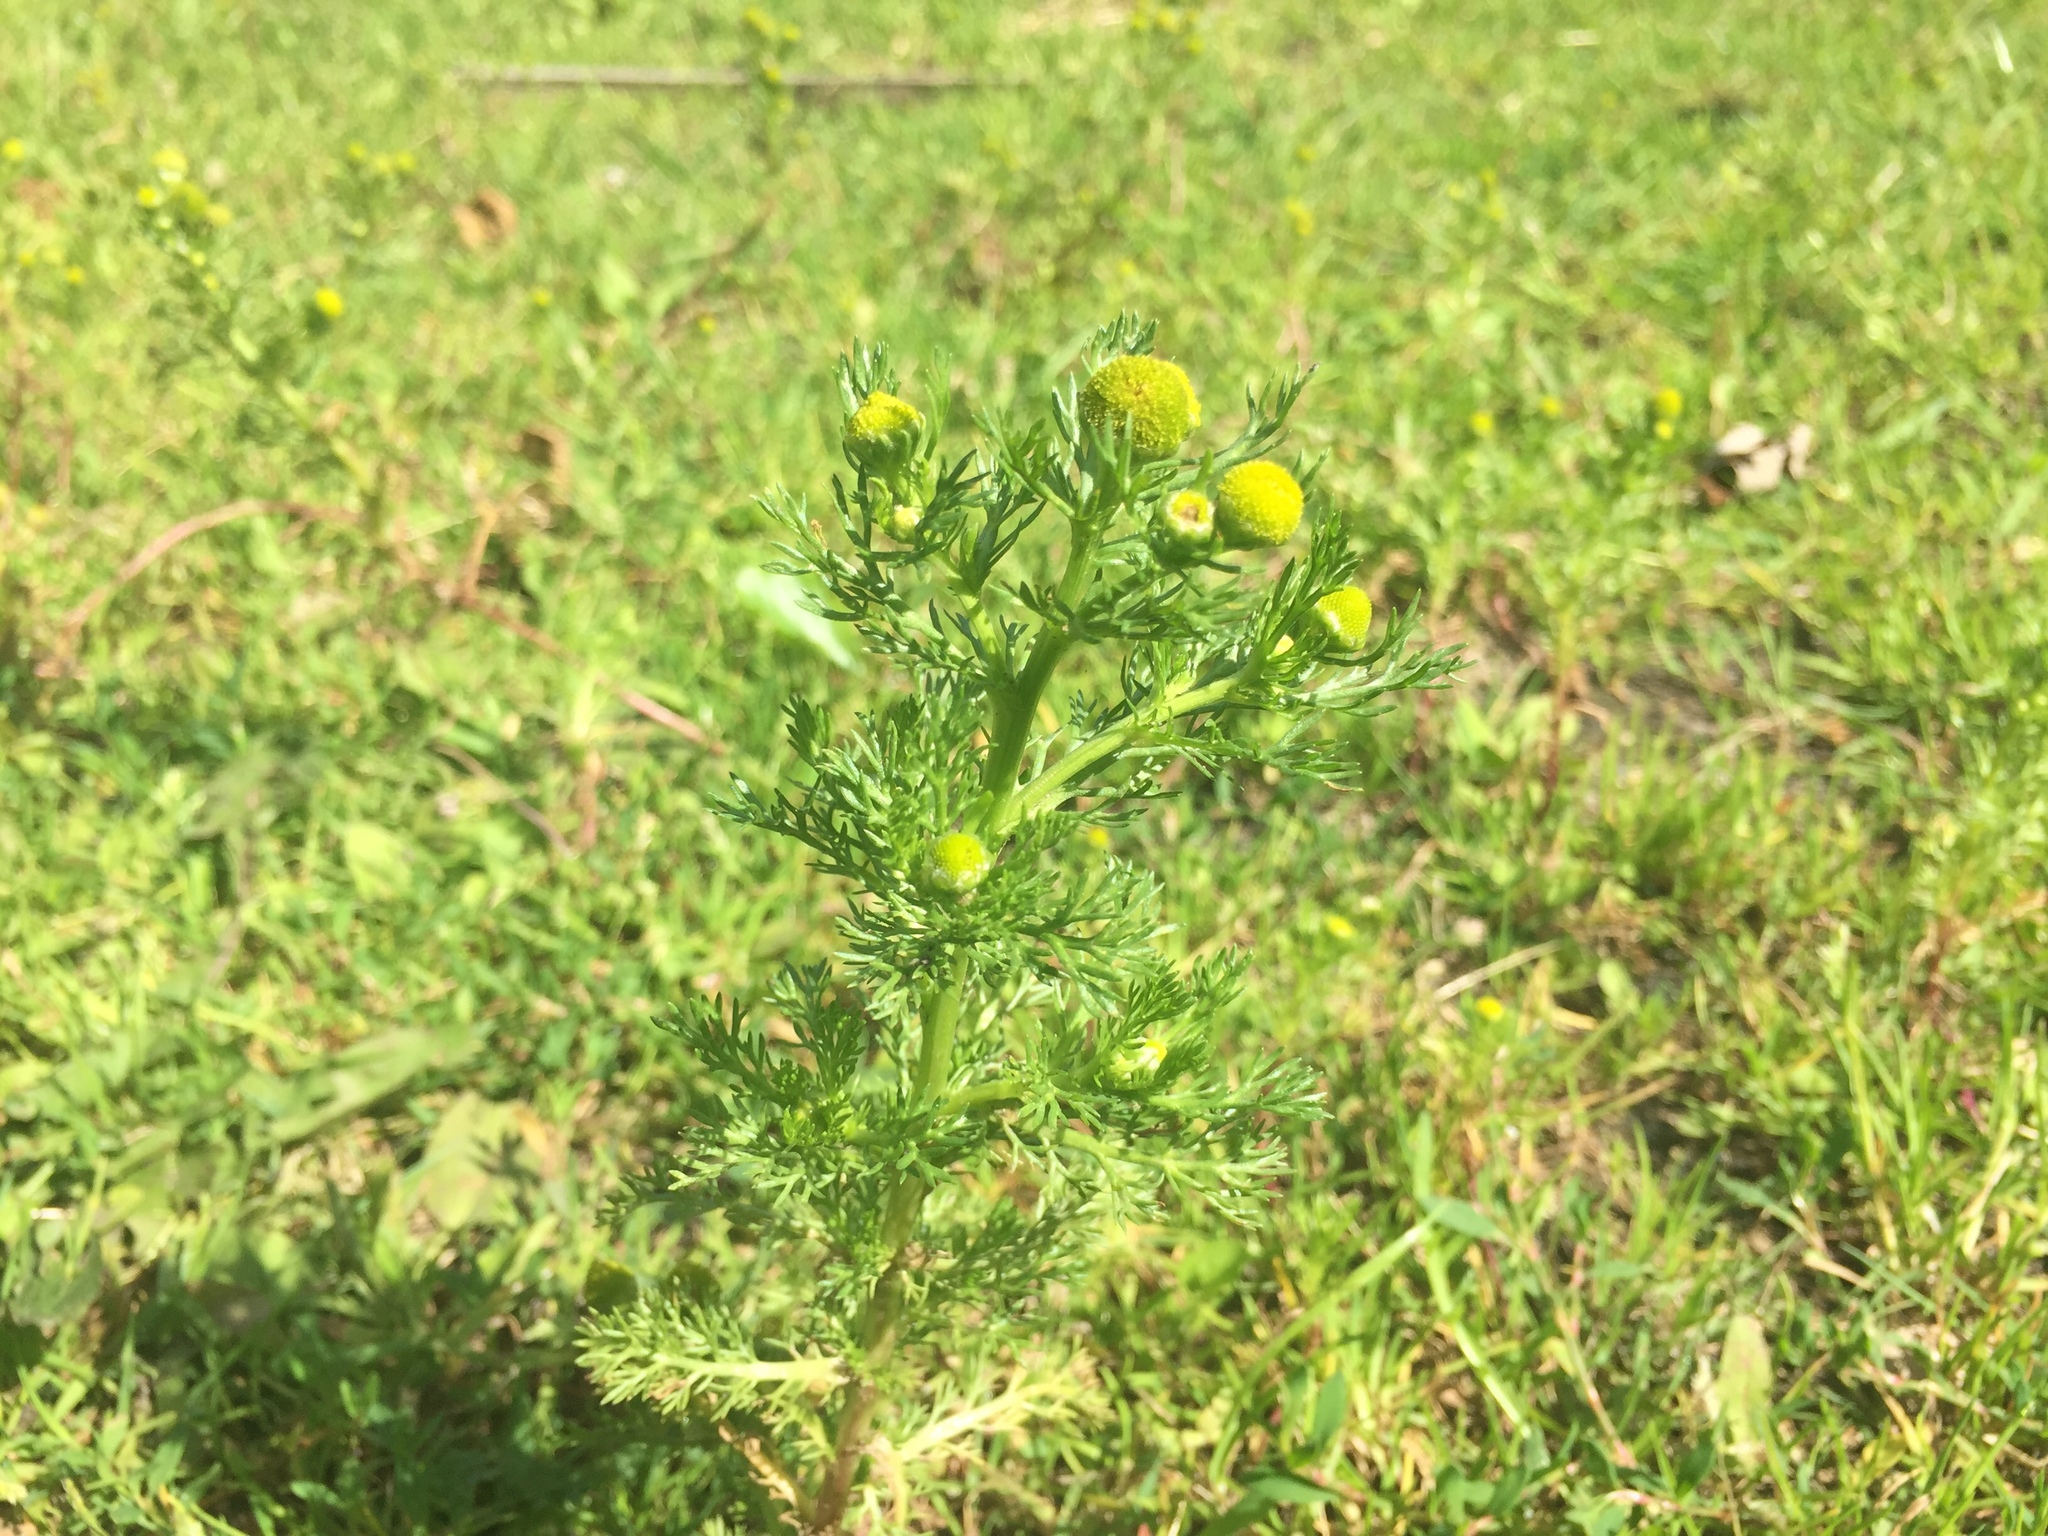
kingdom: Plantae
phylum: Tracheophyta
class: Magnoliopsida
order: Asterales
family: Asteraceae
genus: Matricaria
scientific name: Matricaria discoidea
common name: Disc mayweed
